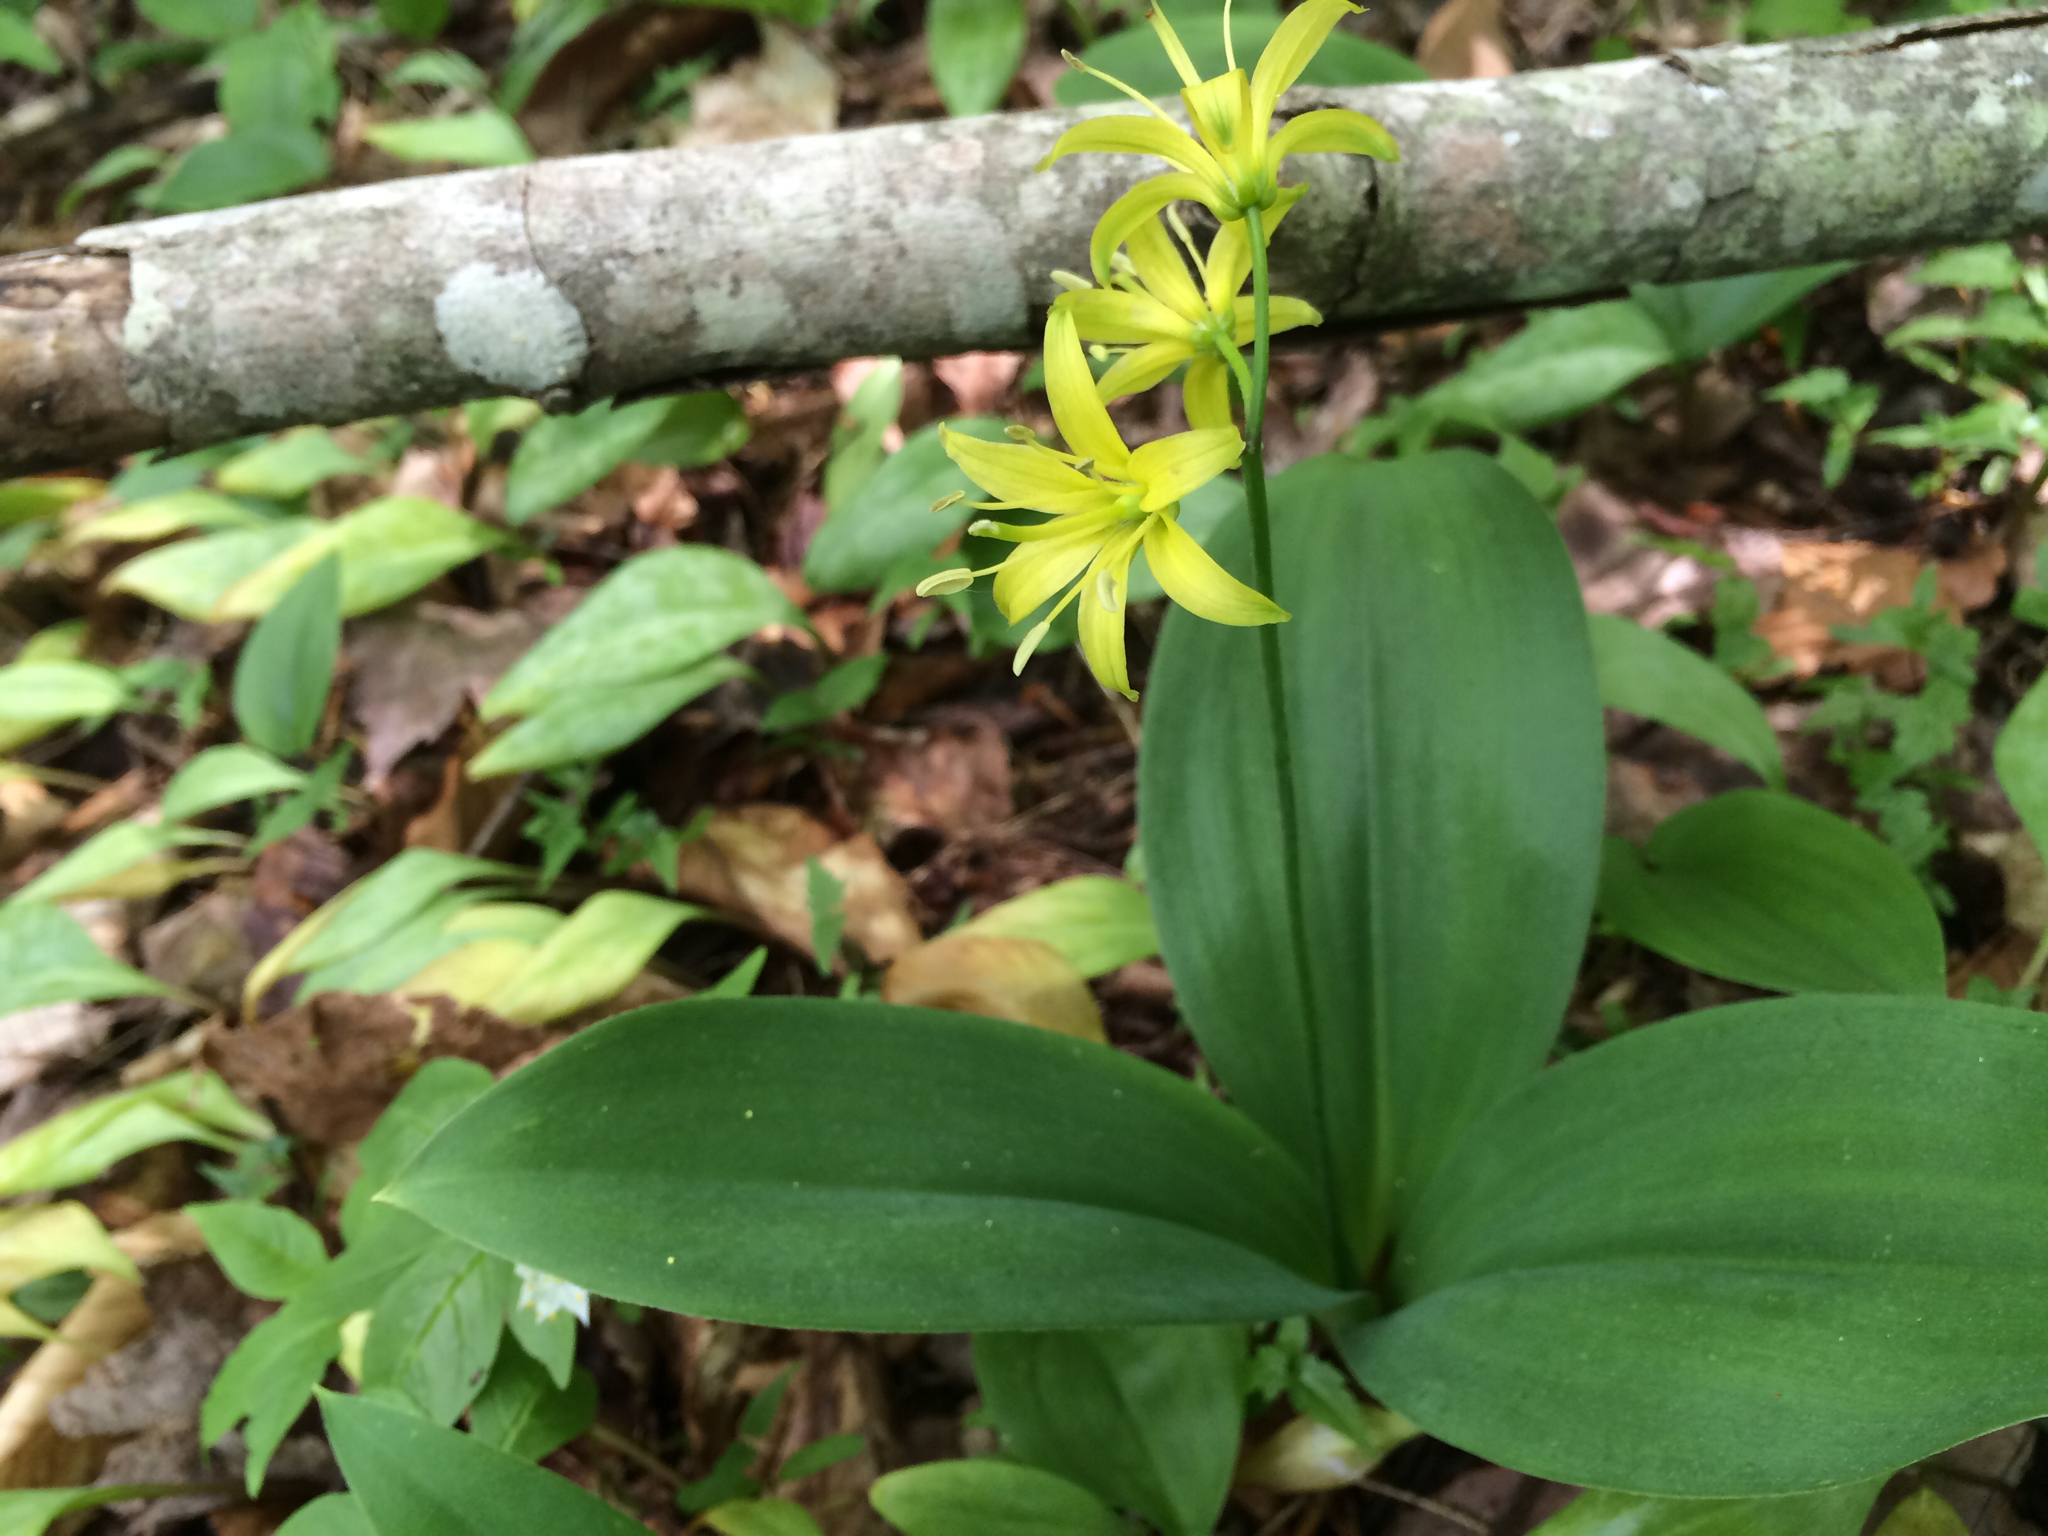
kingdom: Plantae
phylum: Tracheophyta
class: Liliopsida
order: Liliales
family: Liliaceae
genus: Clintonia
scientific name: Clintonia borealis
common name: Yellow clintonia
